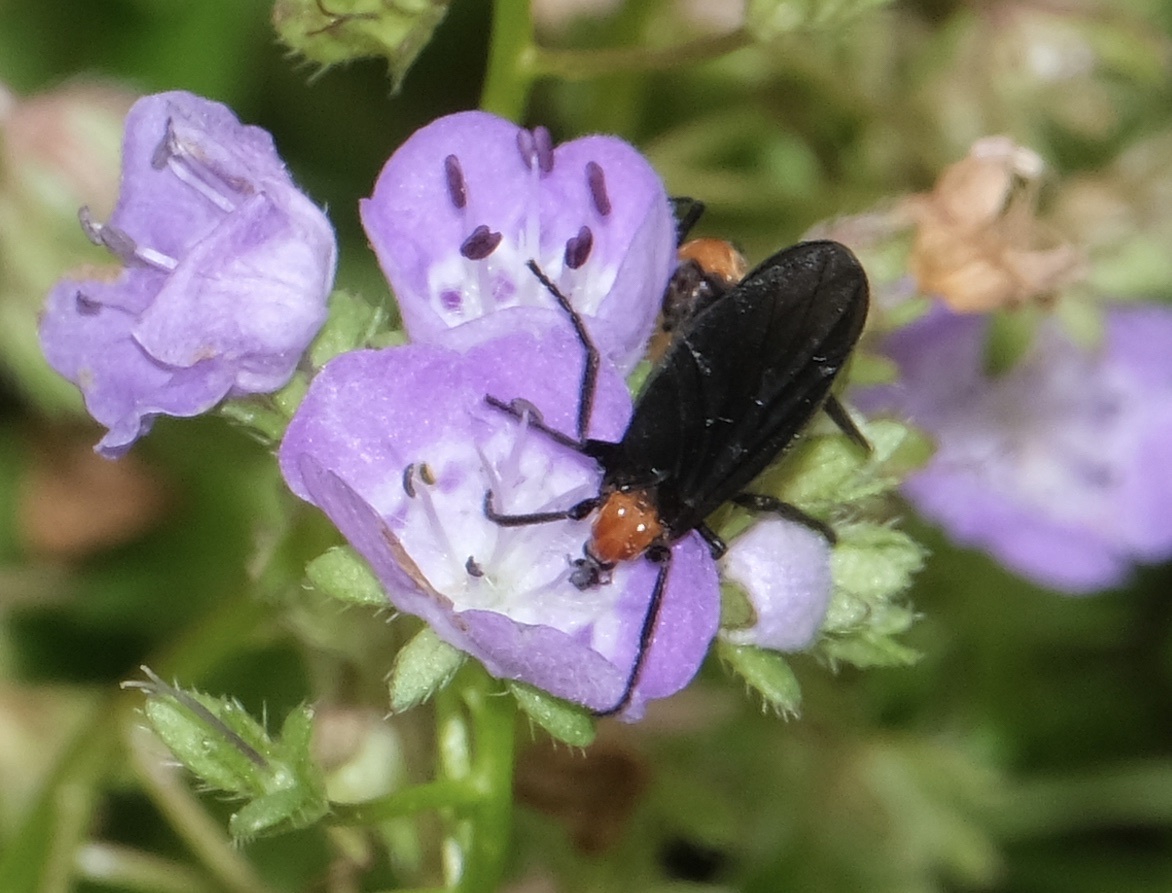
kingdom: Animalia
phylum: Arthropoda
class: Insecta
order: Diptera
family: Bibionidae
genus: Plecia
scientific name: Plecia nearctica
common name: March fly
